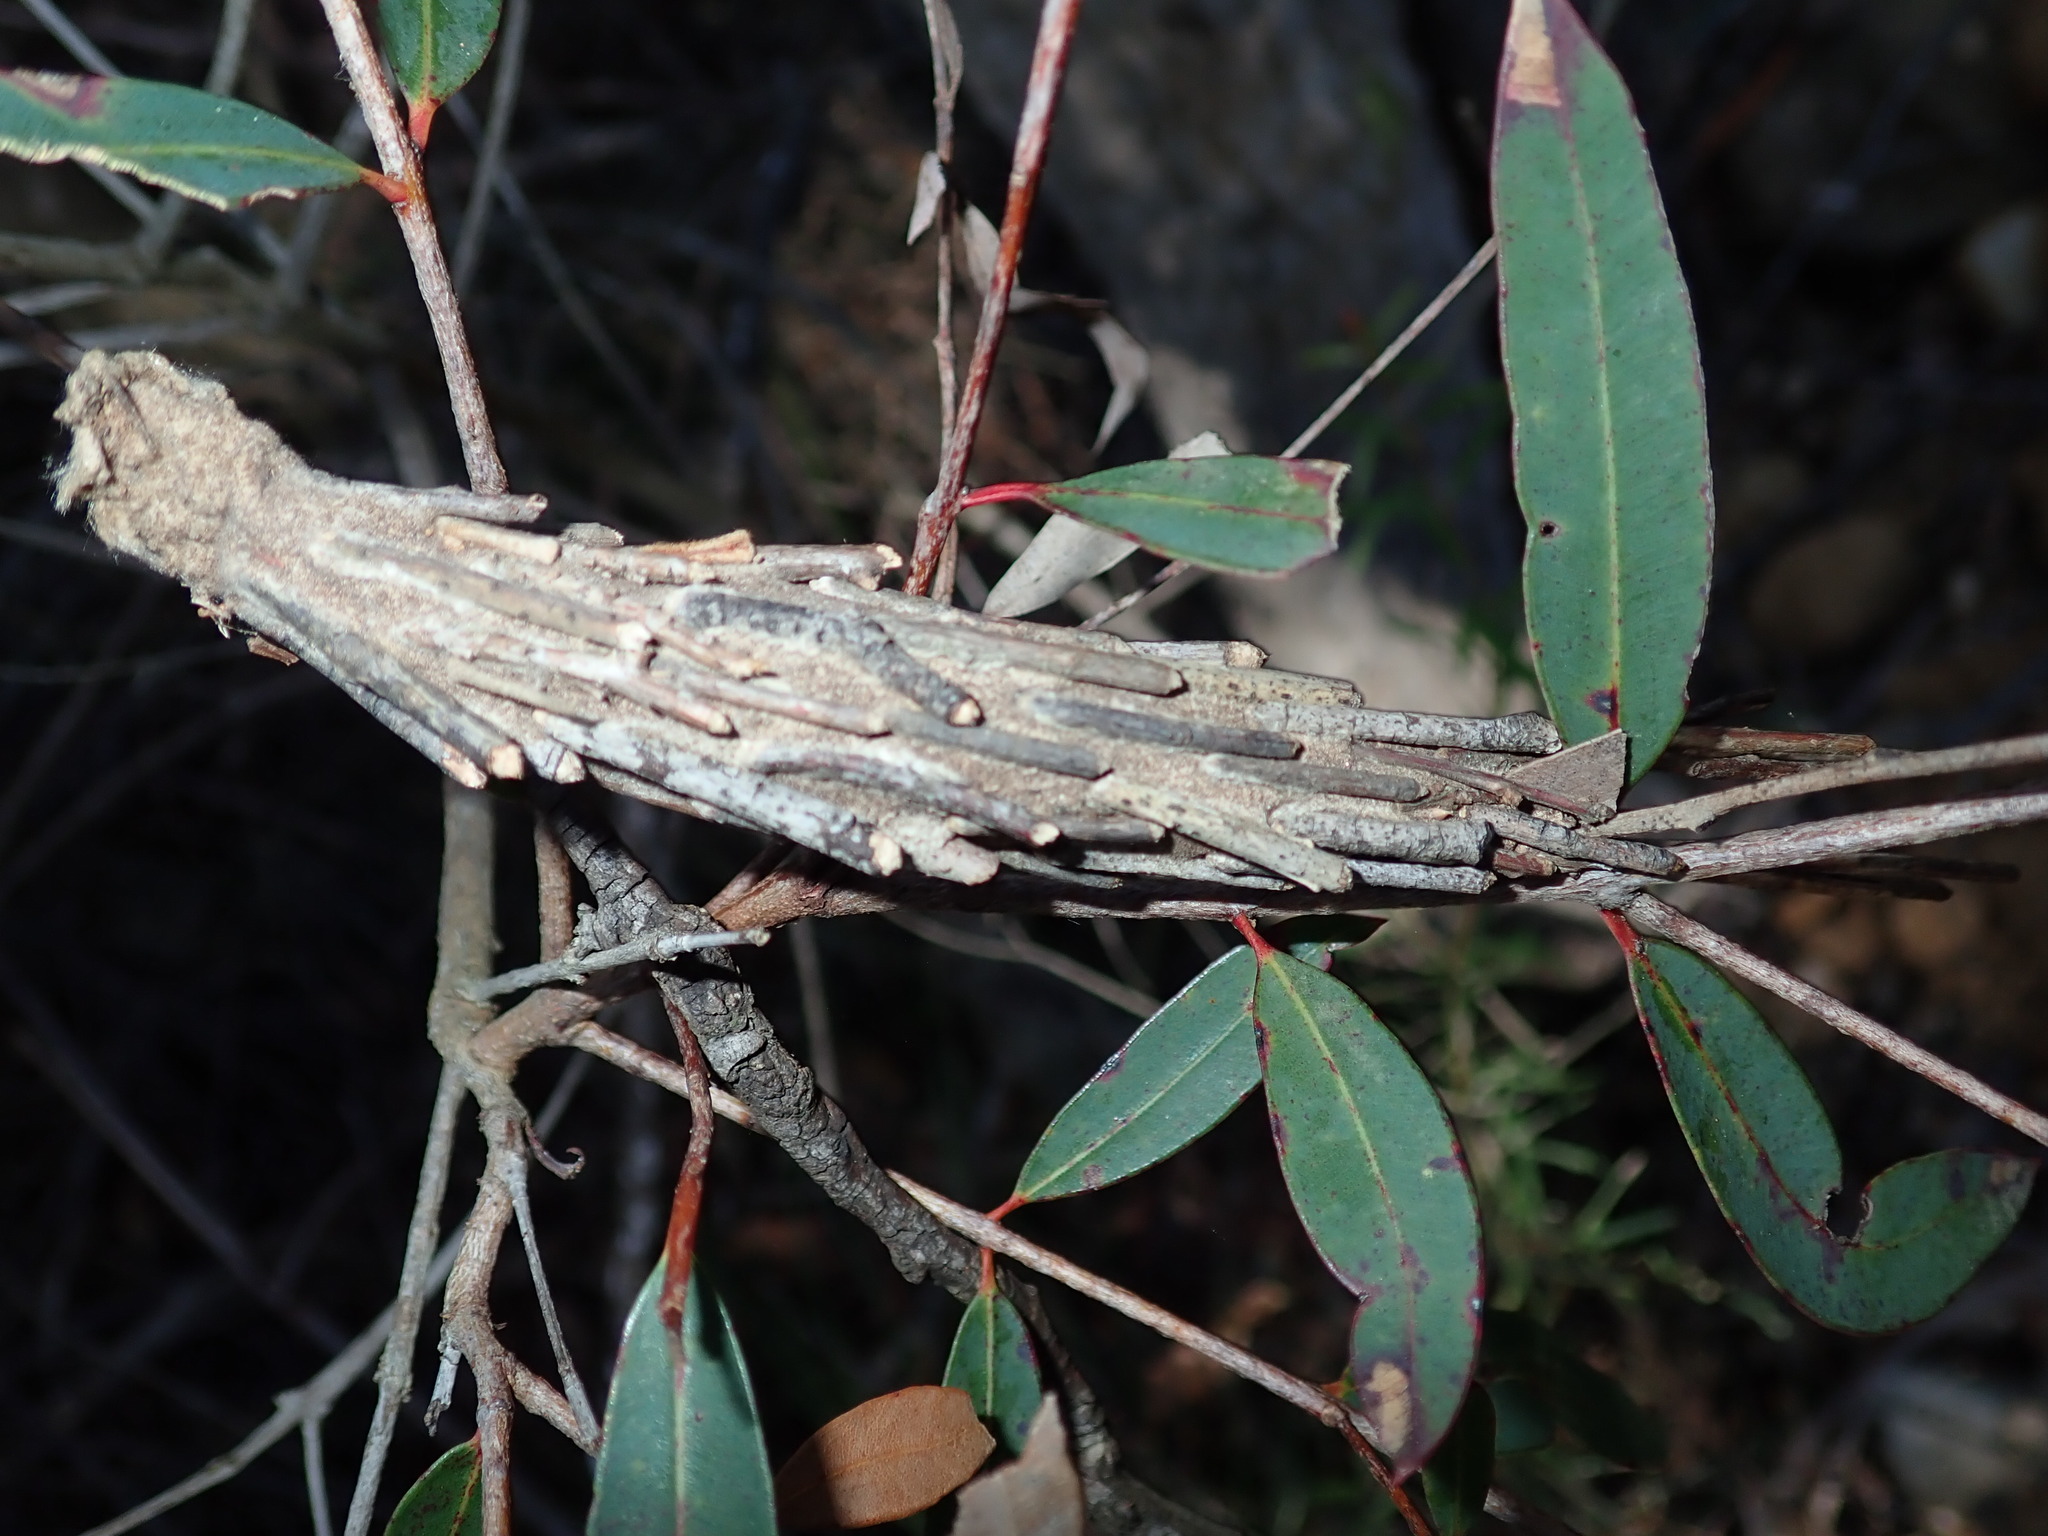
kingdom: Animalia
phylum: Arthropoda
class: Insecta
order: Lepidoptera
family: Psychidae
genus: Metura
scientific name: Metura elongatus
